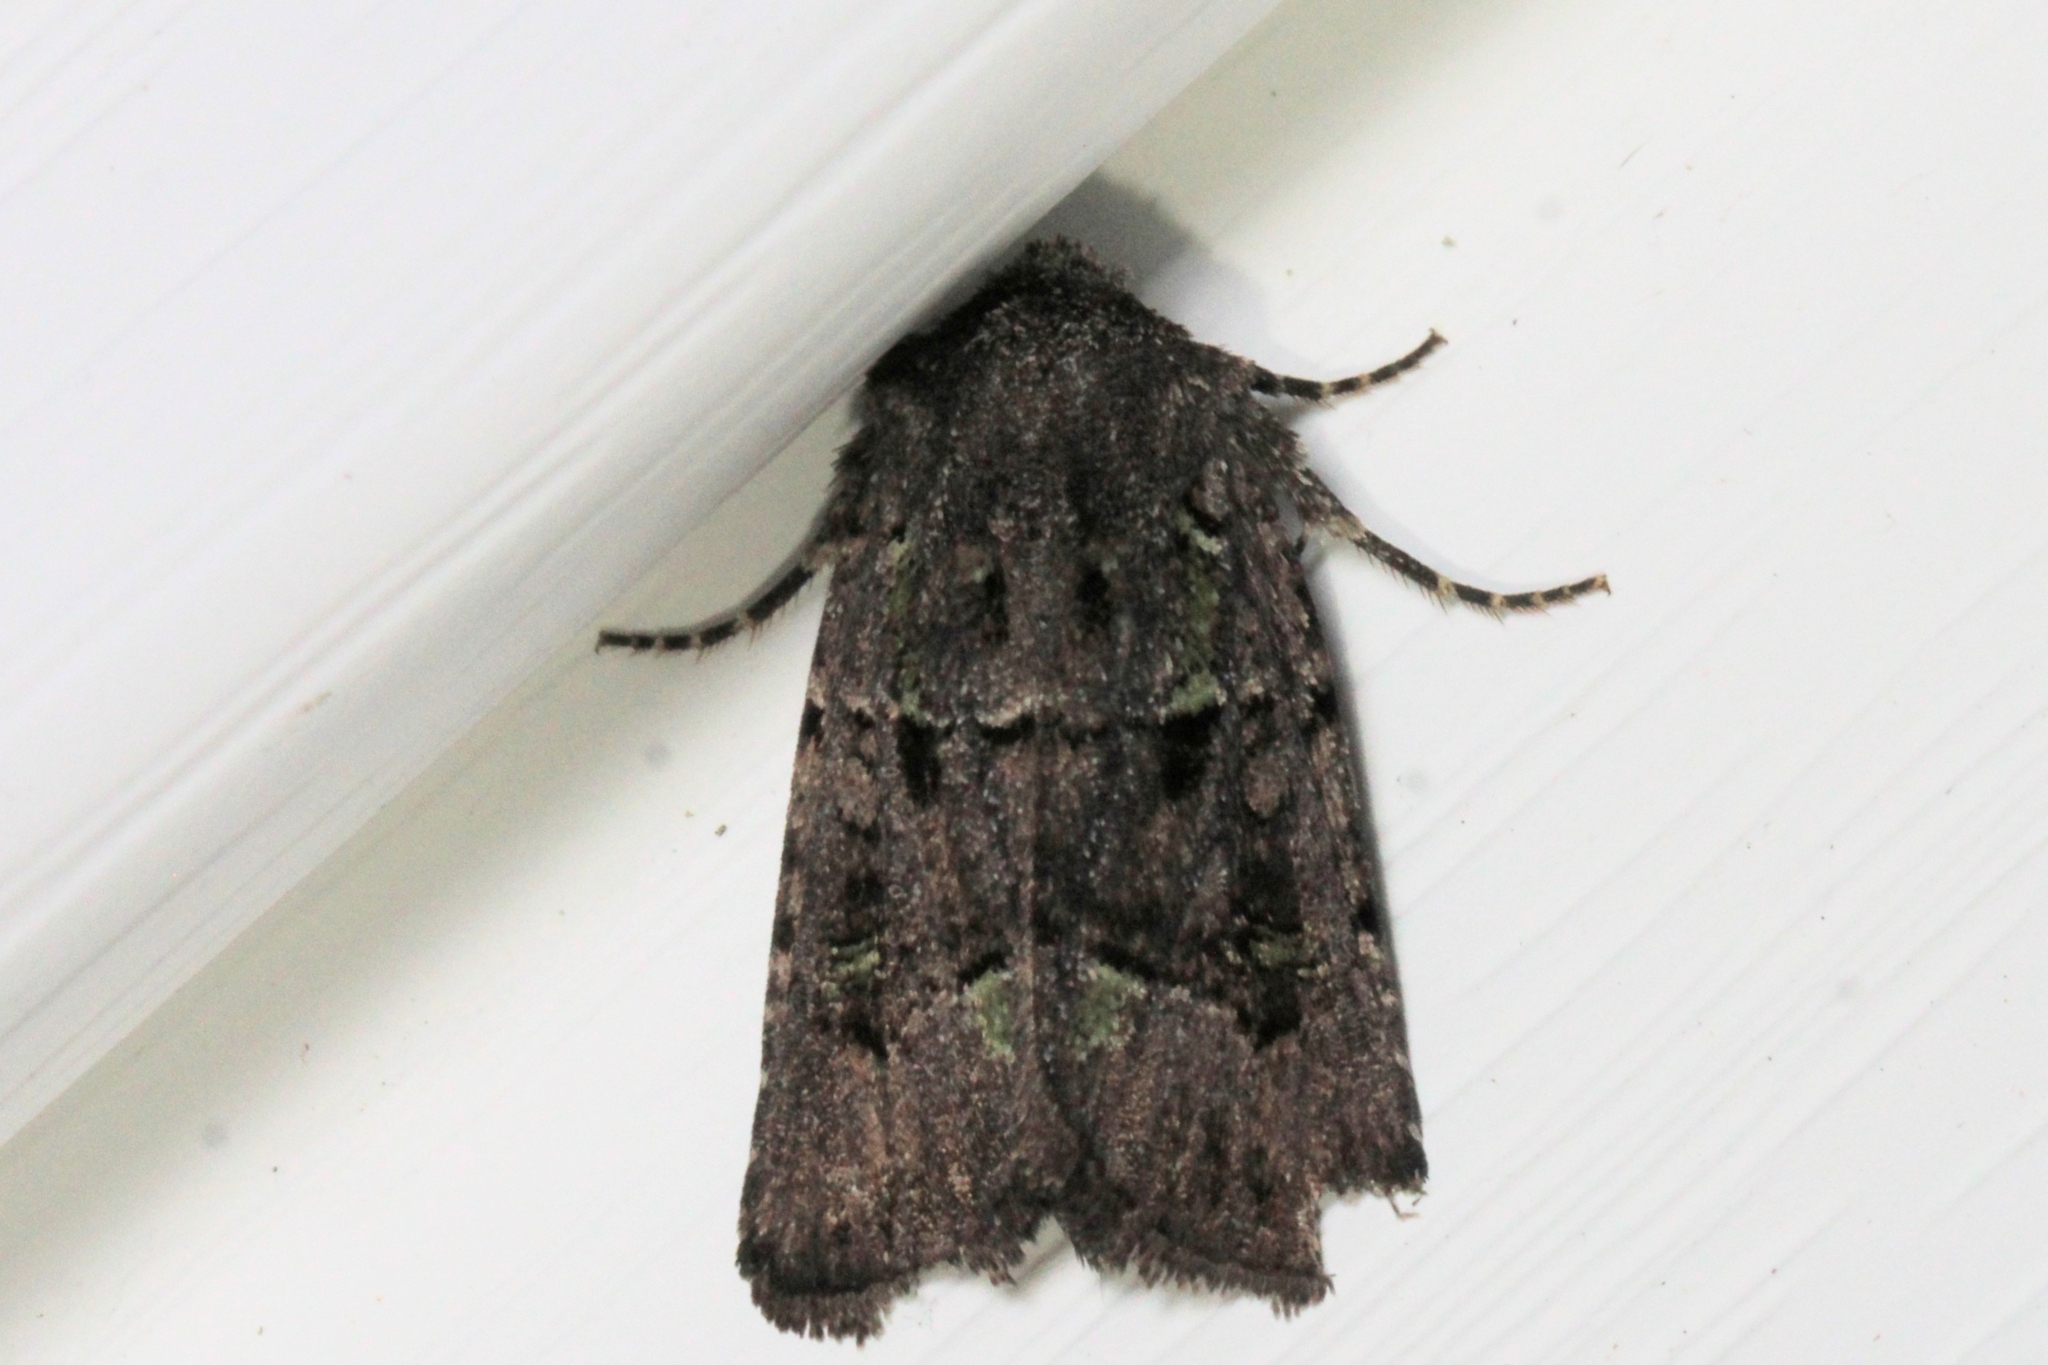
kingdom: Animalia
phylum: Arthropoda
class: Insecta
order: Lepidoptera
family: Noctuidae
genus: Lacinipolia
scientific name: Lacinipolia renigera
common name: Kidney-spotted minor
